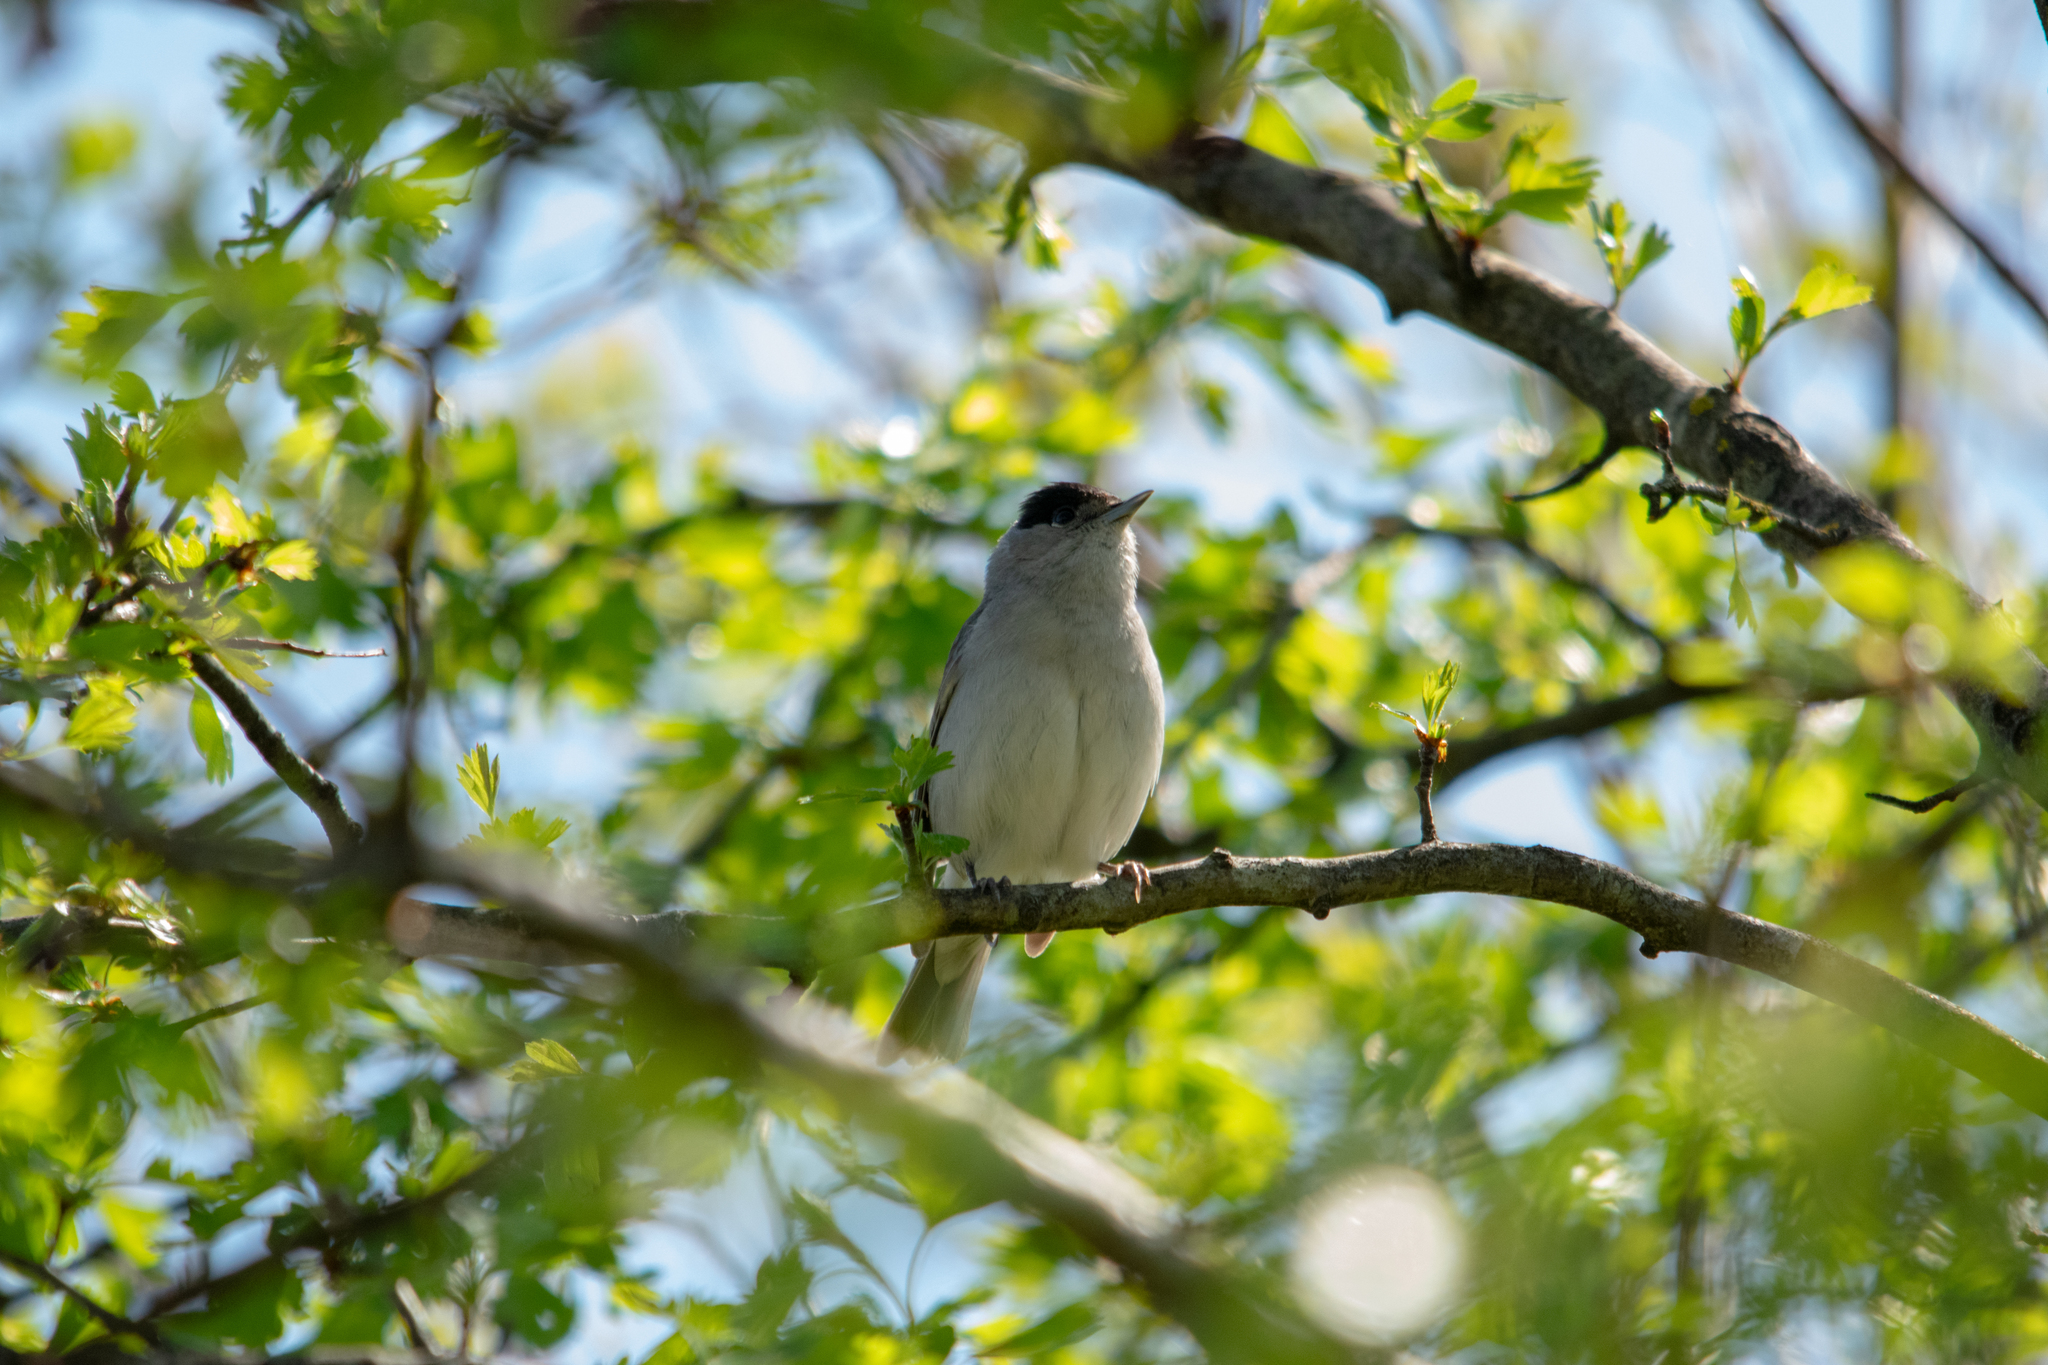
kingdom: Animalia
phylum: Chordata
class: Aves
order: Passeriformes
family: Sylviidae
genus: Sylvia
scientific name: Sylvia atricapilla
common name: Eurasian blackcap
